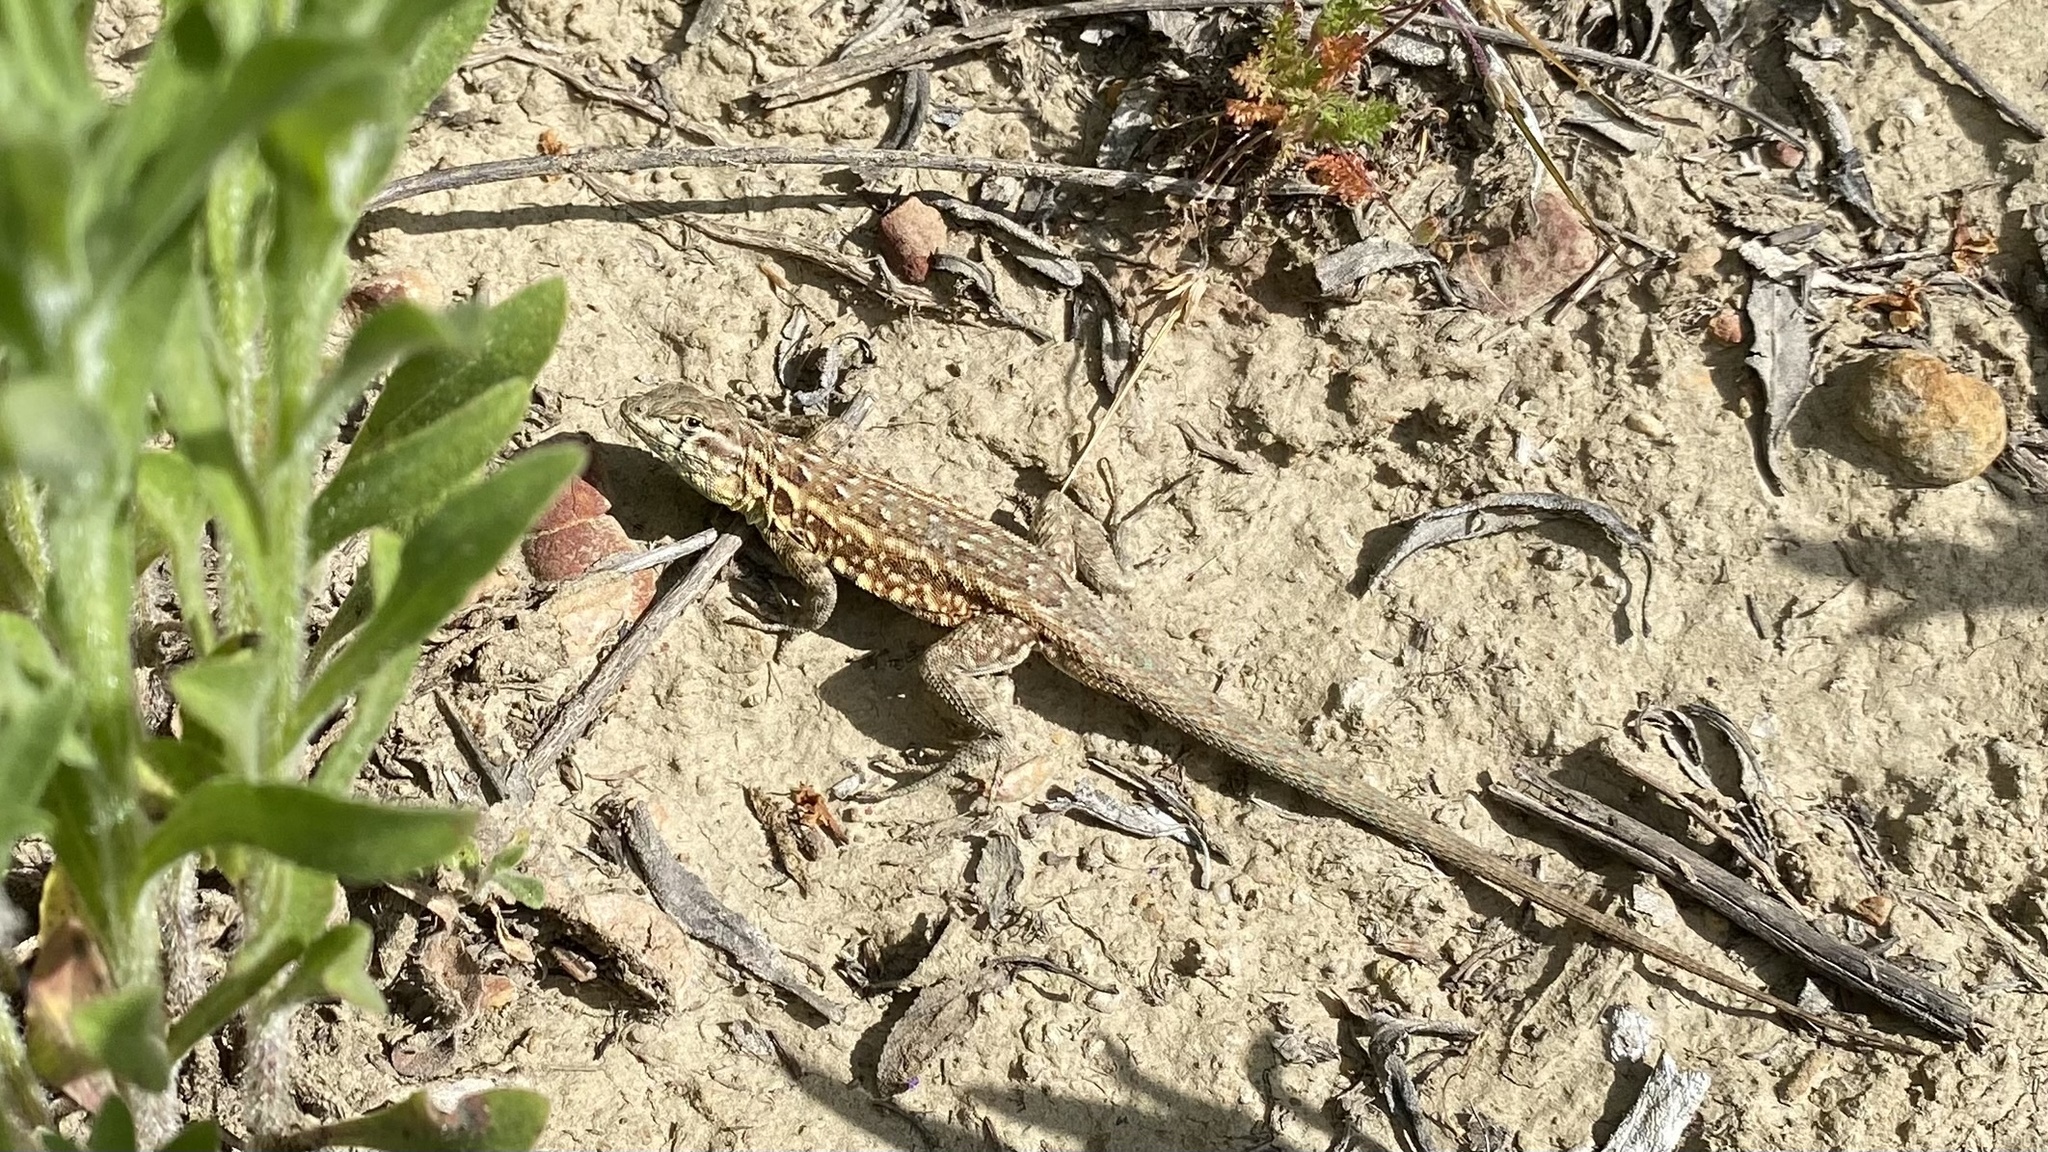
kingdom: Animalia
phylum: Chordata
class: Squamata
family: Phrynosomatidae
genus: Uta
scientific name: Uta stansburiana
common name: Side-blotched lizard
